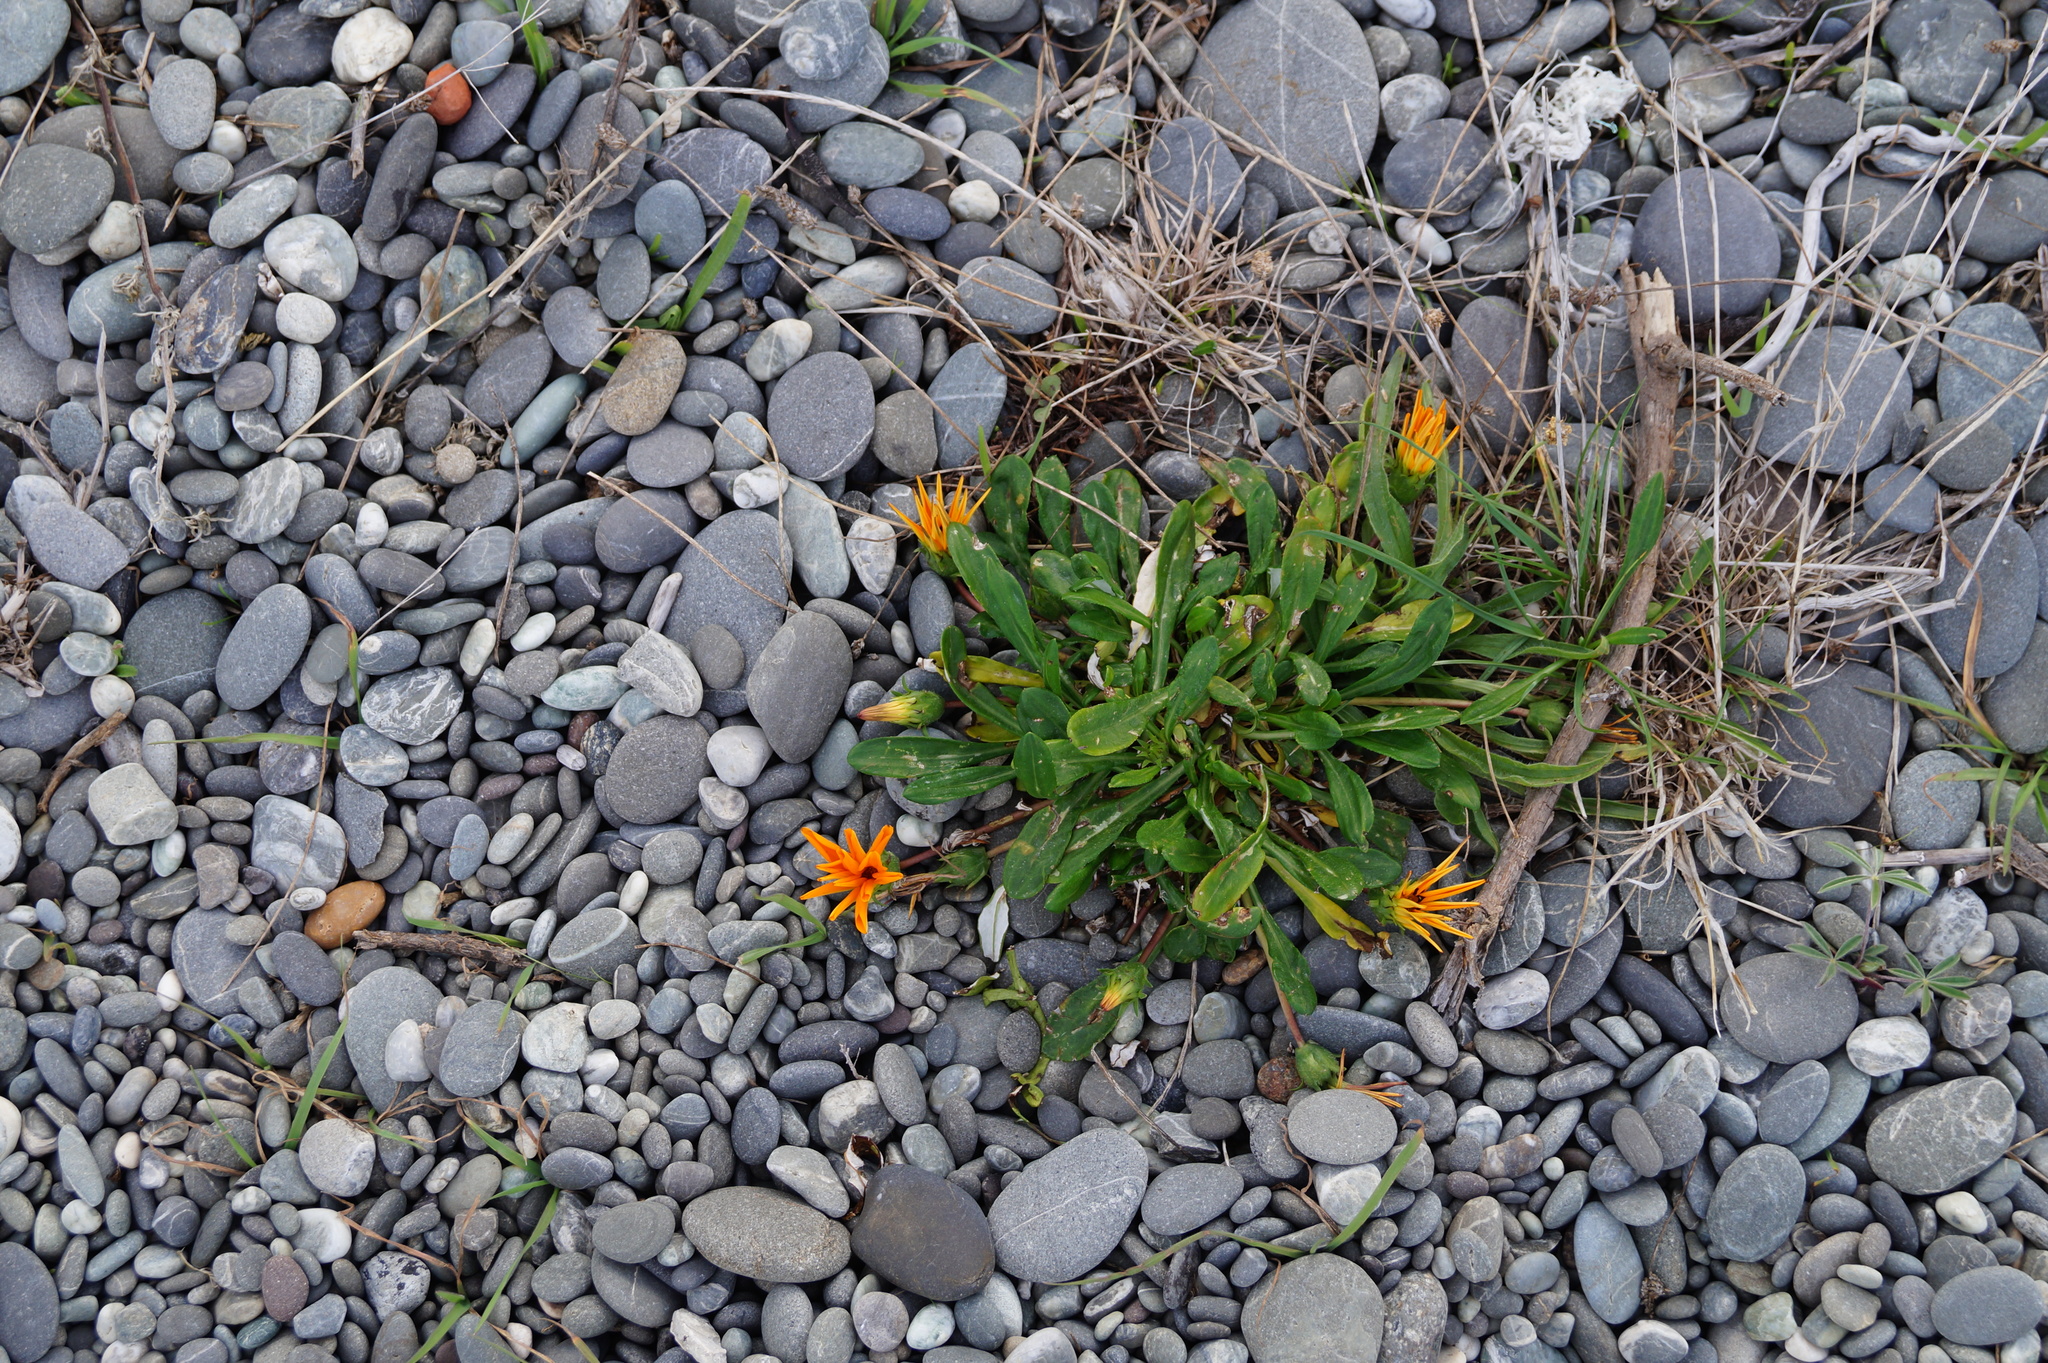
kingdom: Plantae
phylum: Tracheophyta
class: Magnoliopsida
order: Asterales
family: Asteraceae
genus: Gazania
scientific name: Gazania rigens
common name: Treasureflower
